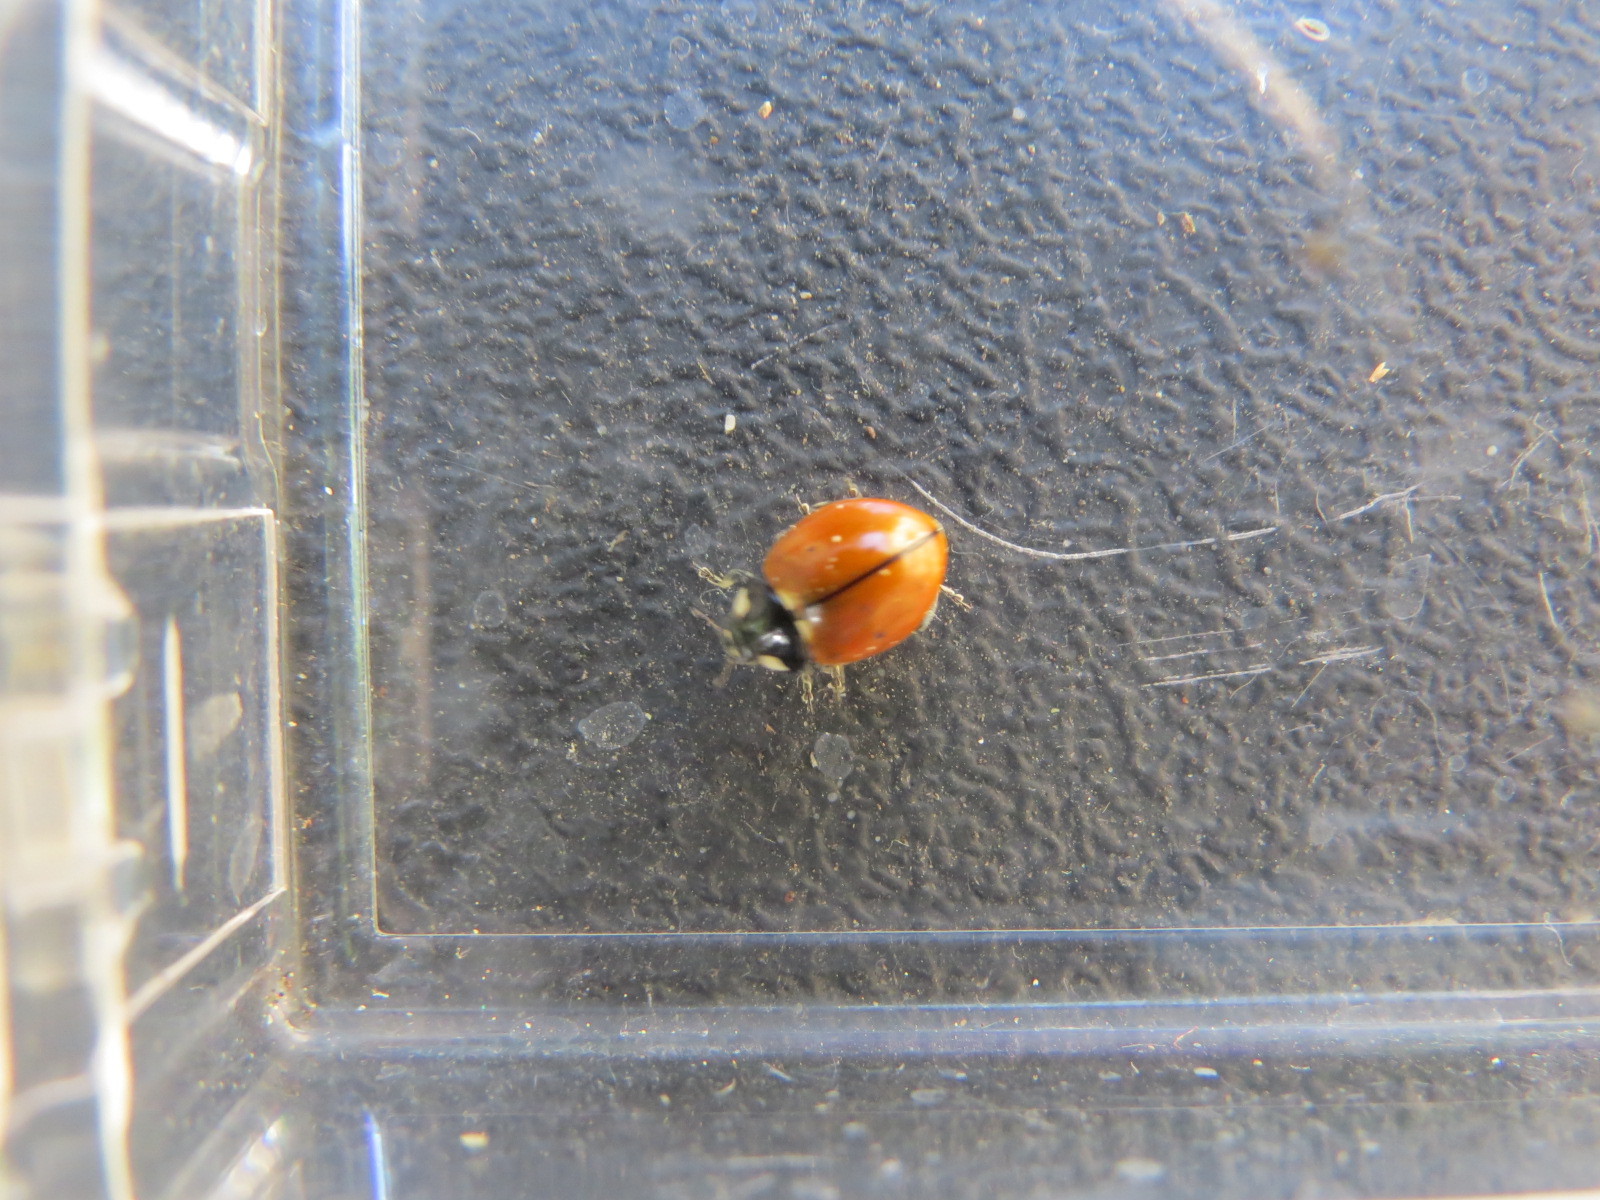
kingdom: Animalia
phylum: Arthropoda
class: Insecta
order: Coleoptera
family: Coccinellidae
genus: Coccinella
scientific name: Coccinella californica
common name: Lady beetle
